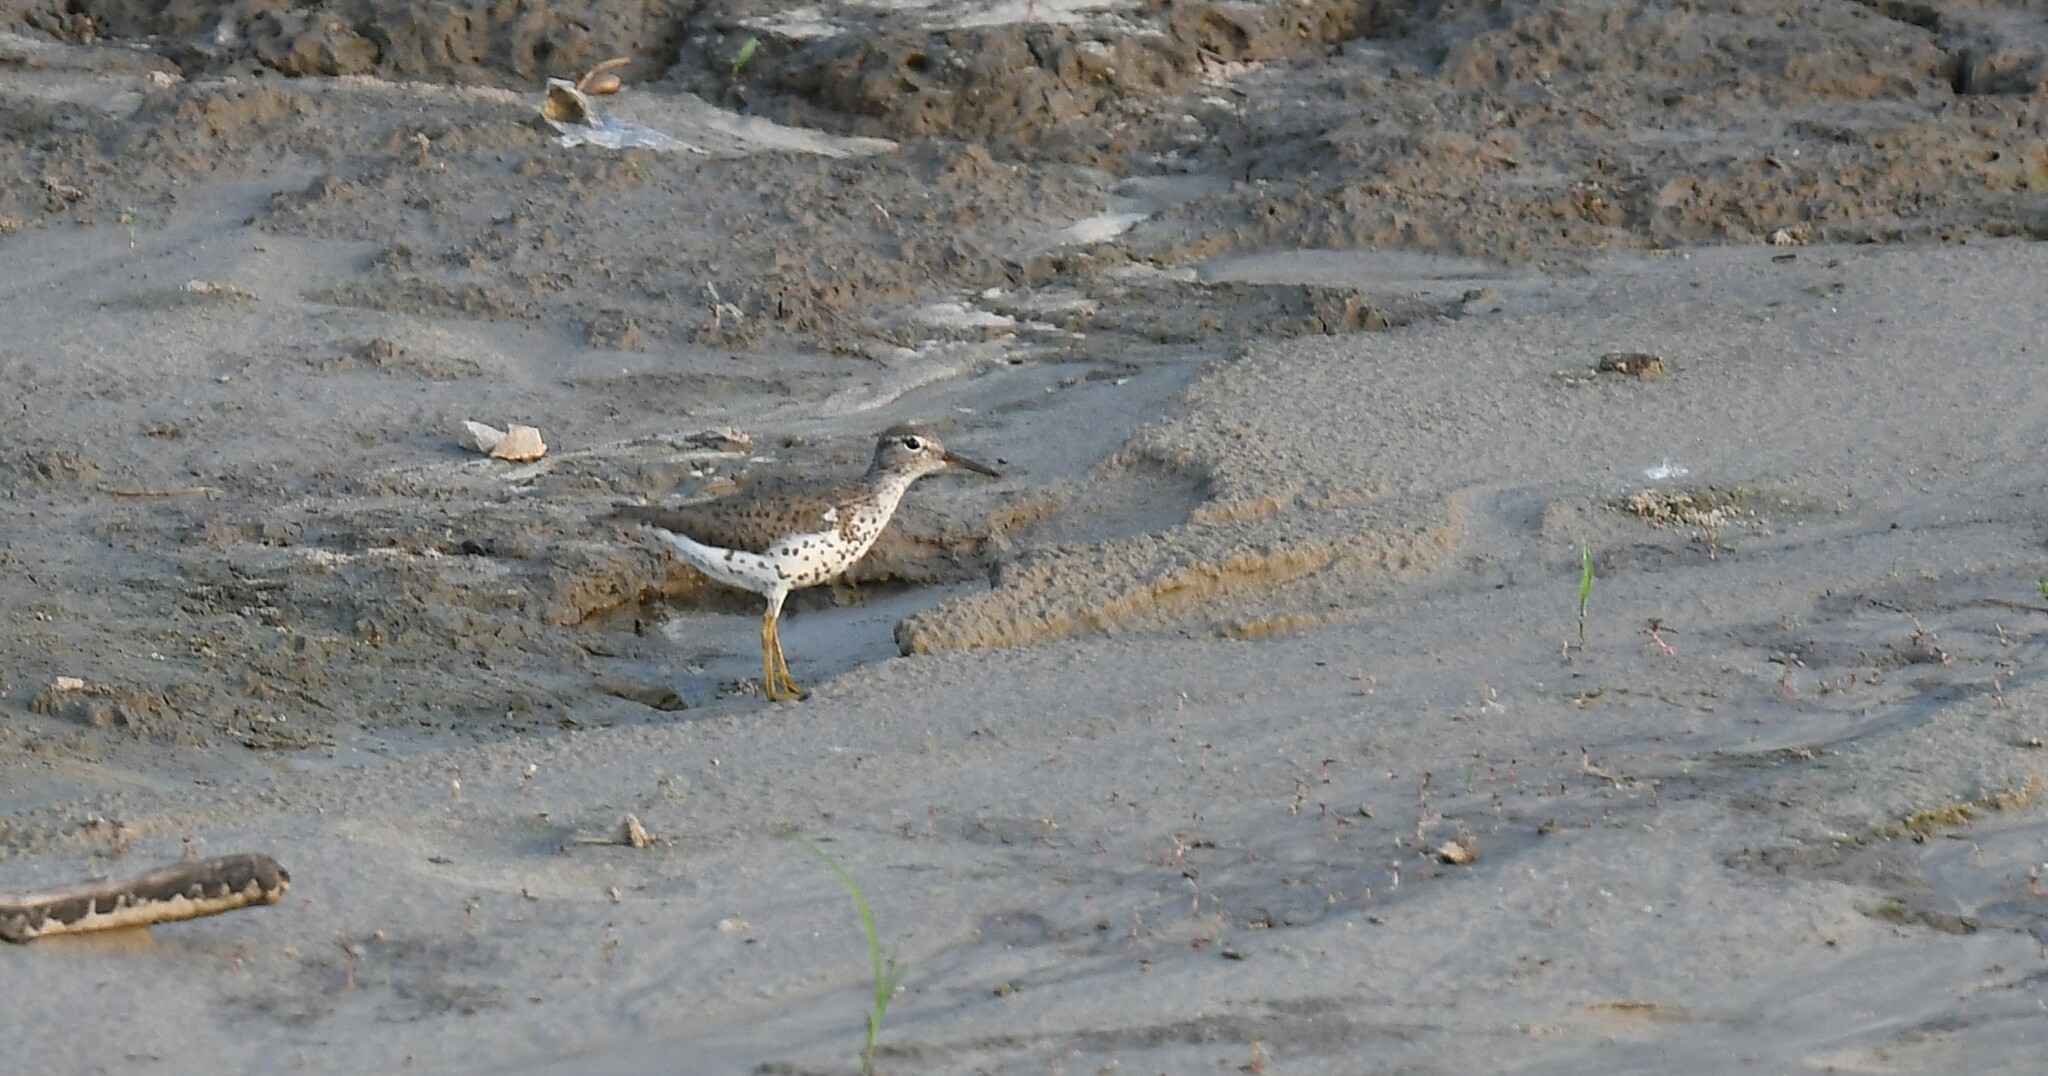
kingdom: Animalia
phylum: Chordata
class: Aves
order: Charadriiformes
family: Scolopacidae
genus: Actitis
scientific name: Actitis macularius
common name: Spotted sandpiper
